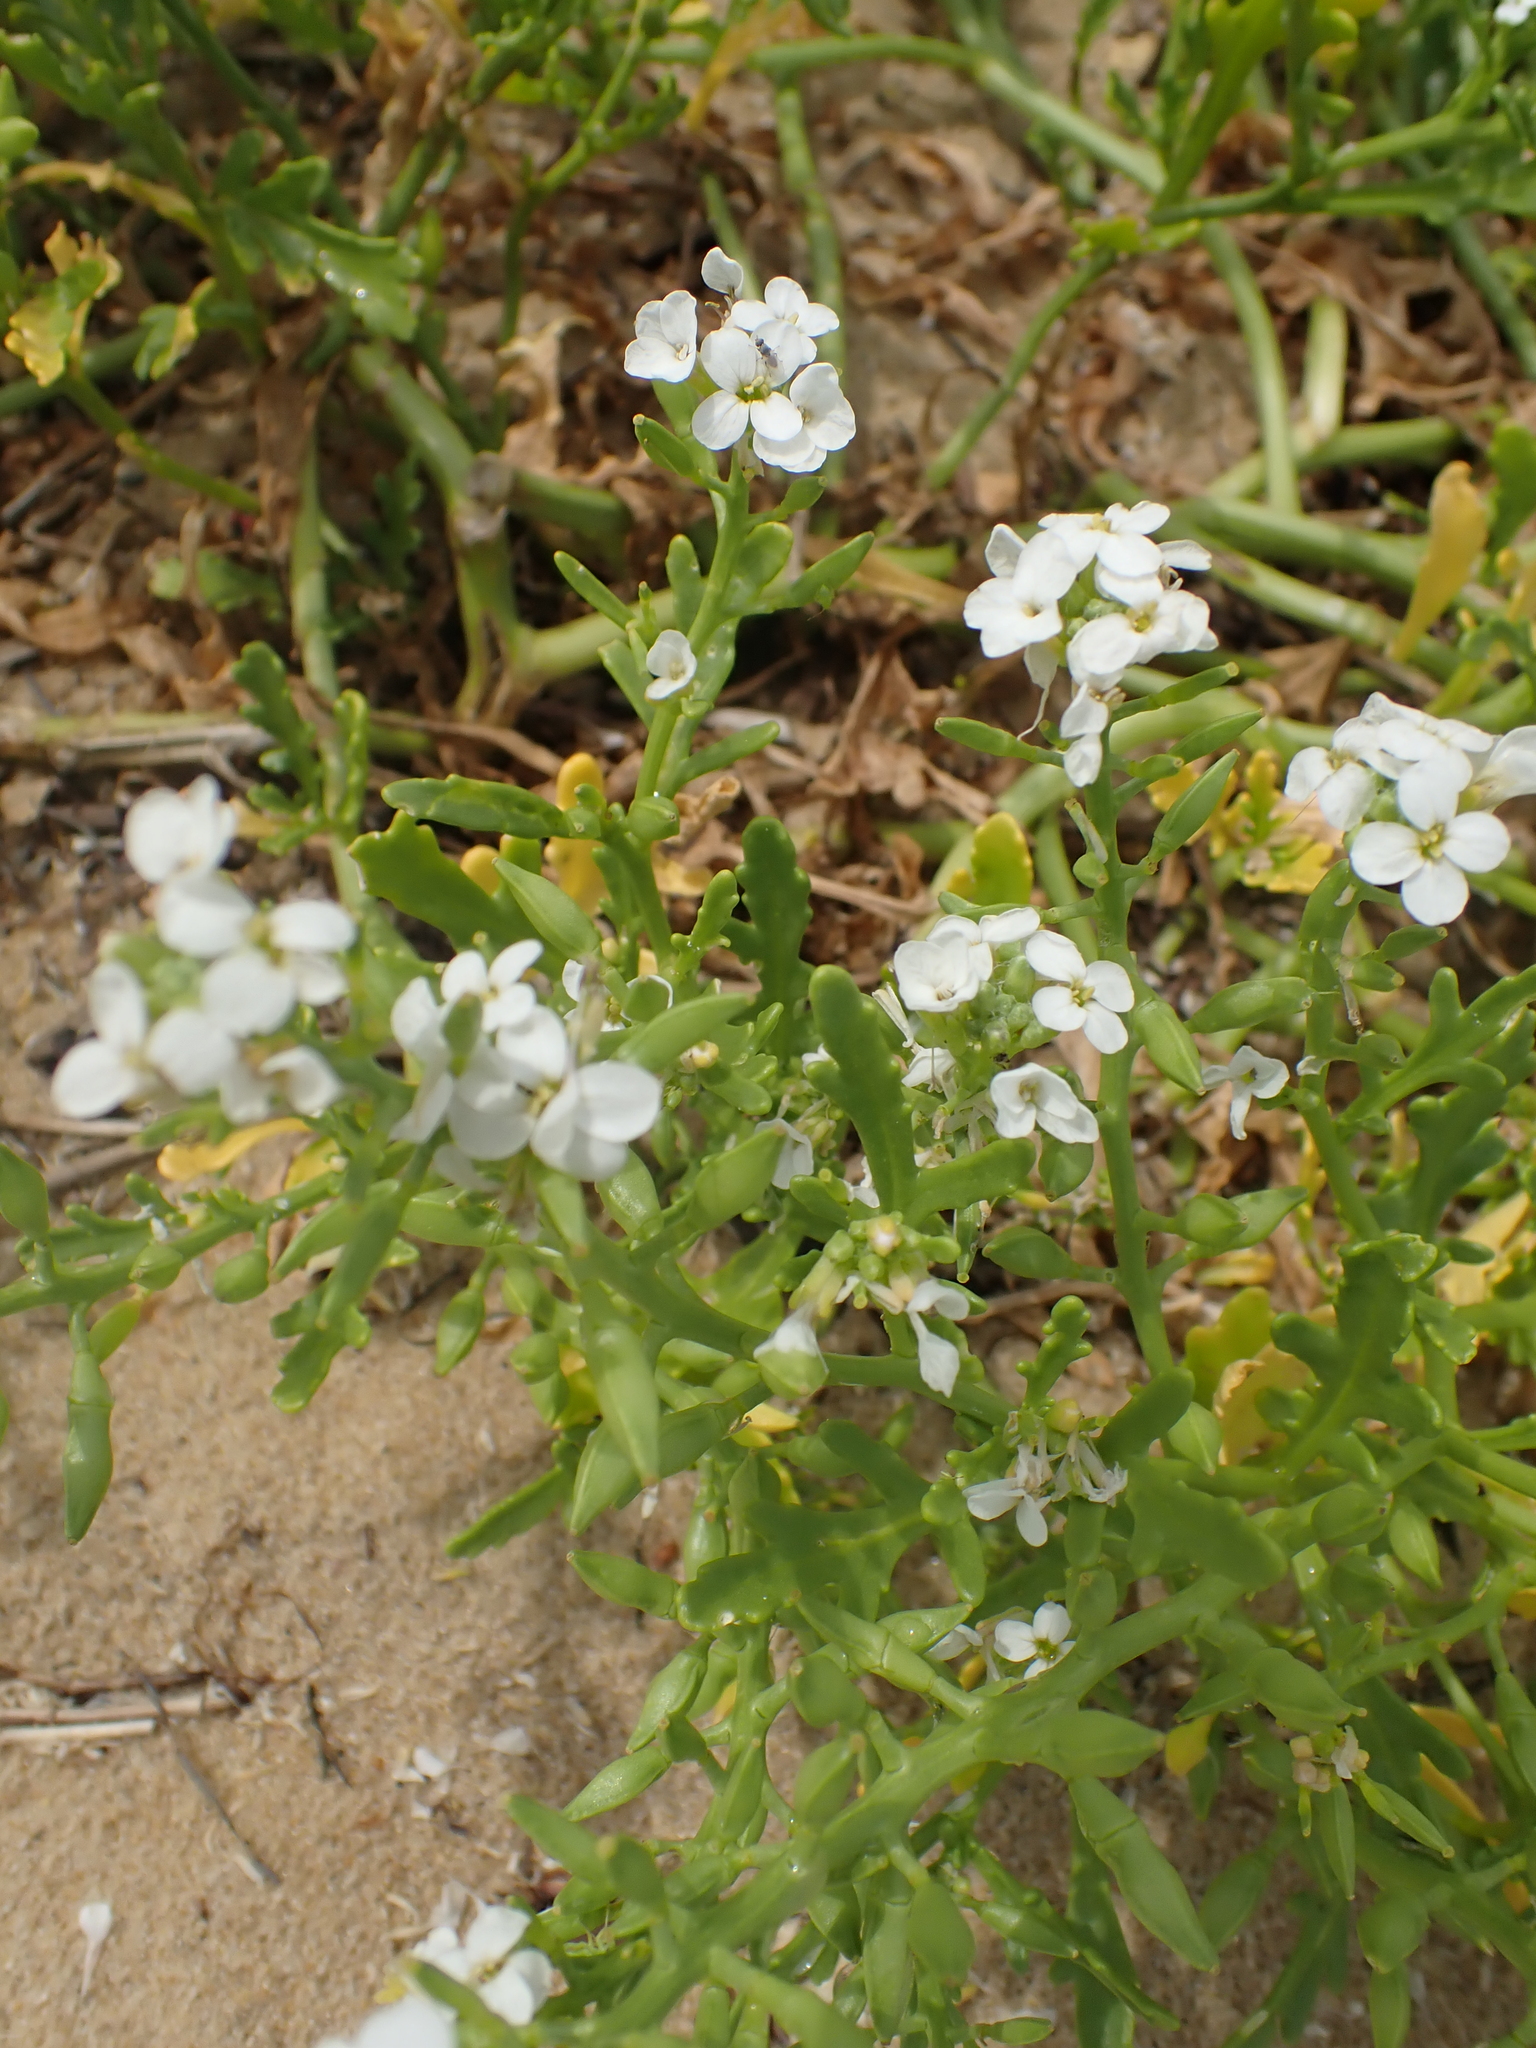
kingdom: Plantae
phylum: Tracheophyta
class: Magnoliopsida
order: Brassicales
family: Brassicaceae
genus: Cakile
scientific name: Cakile maritima
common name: Sea rocket
